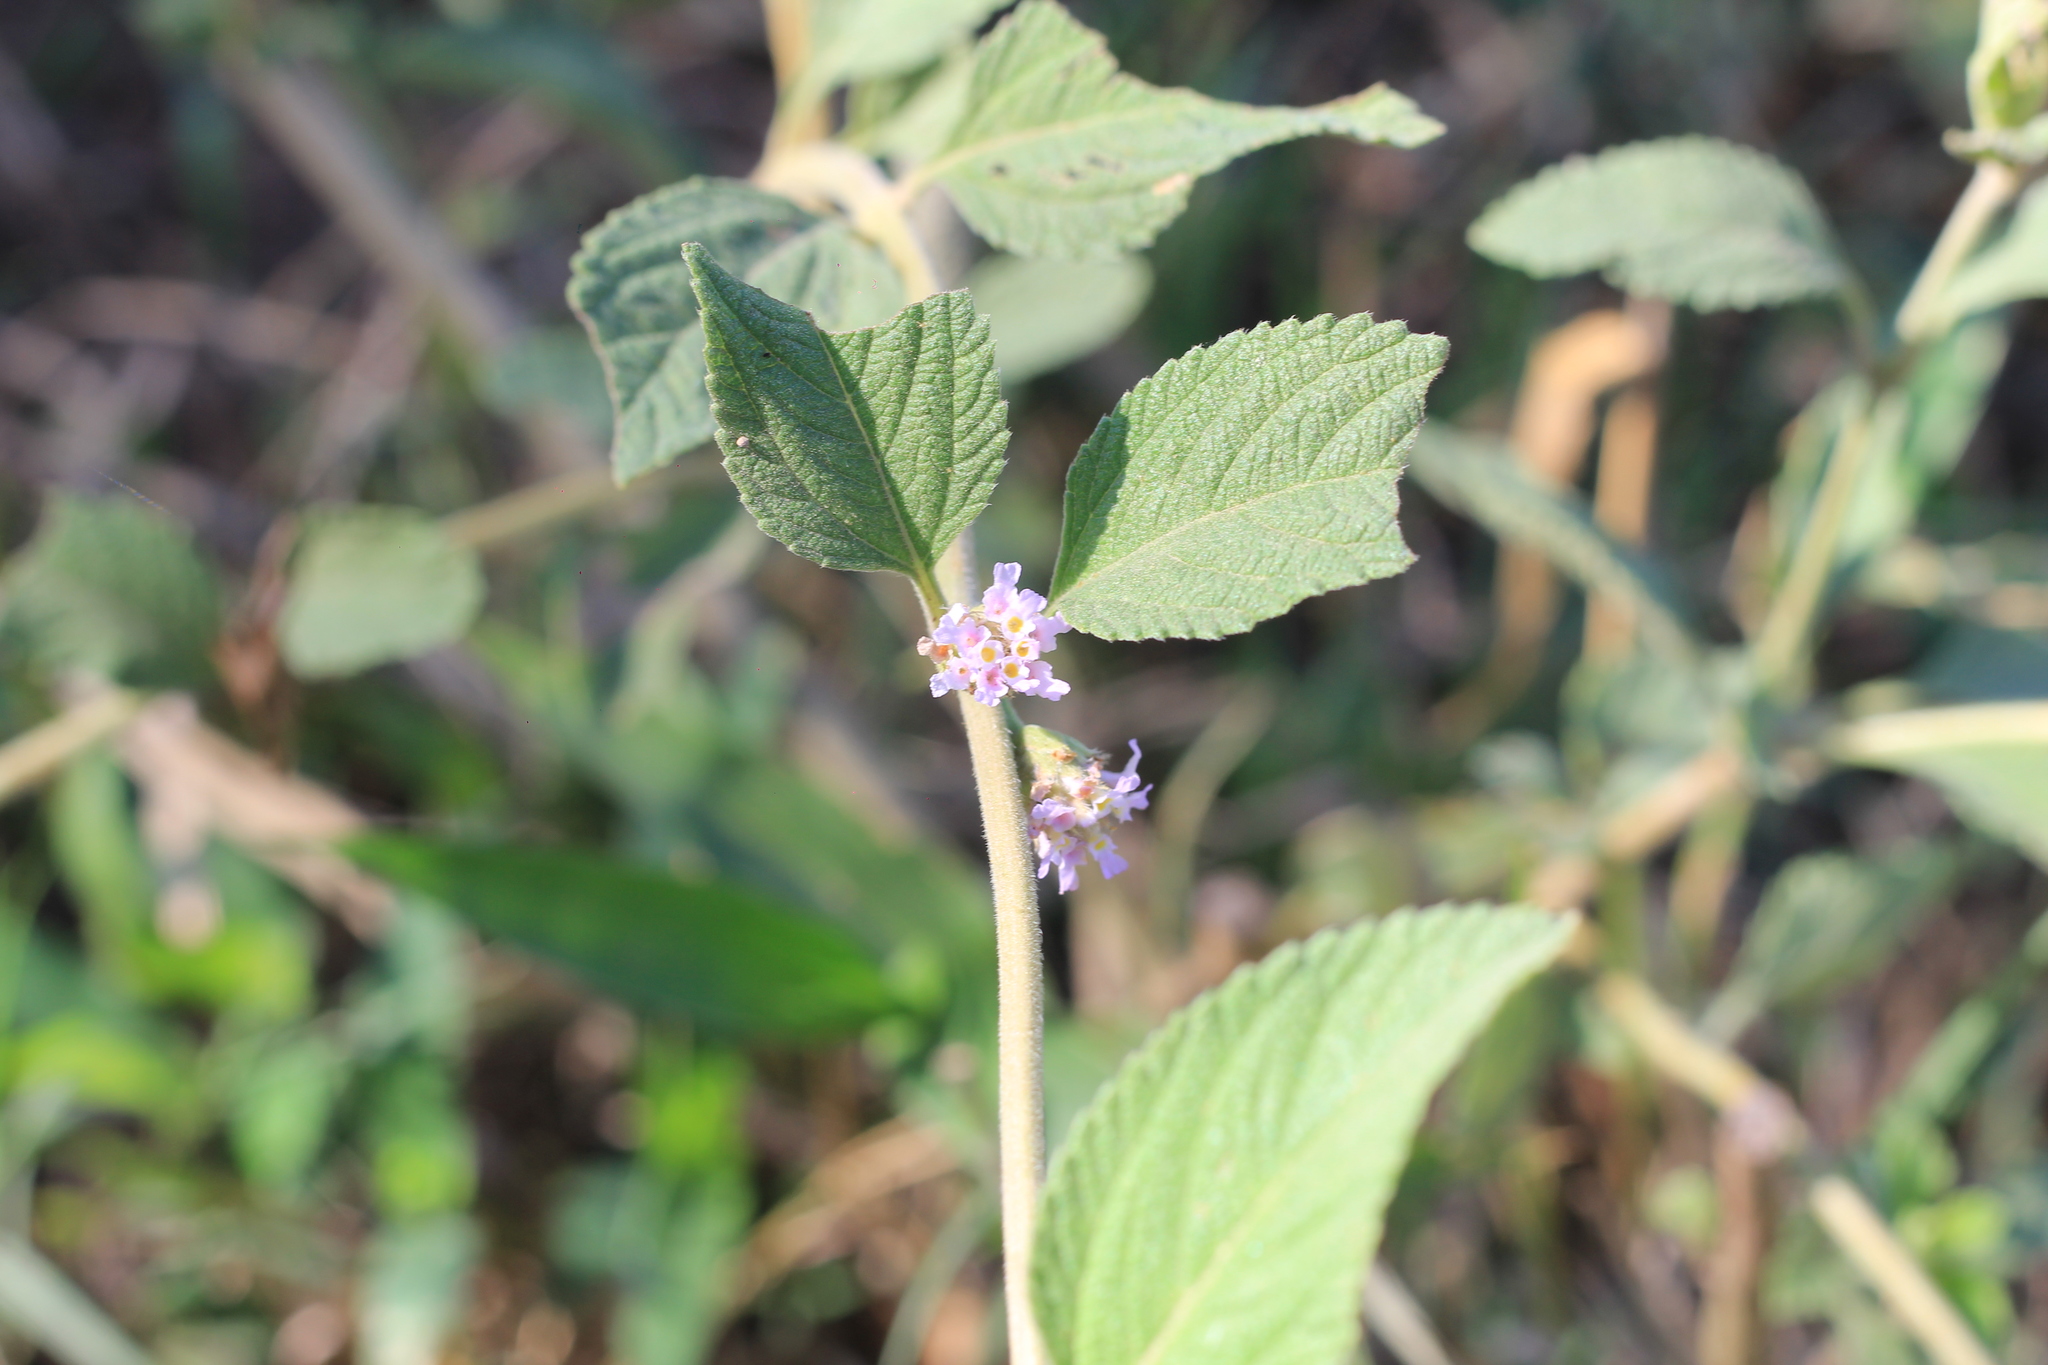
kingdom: Plantae
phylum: Tracheophyta
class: Magnoliopsida
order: Lamiales
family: Verbenaceae
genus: Lippia
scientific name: Lippia alba
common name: Bushy matgrass
